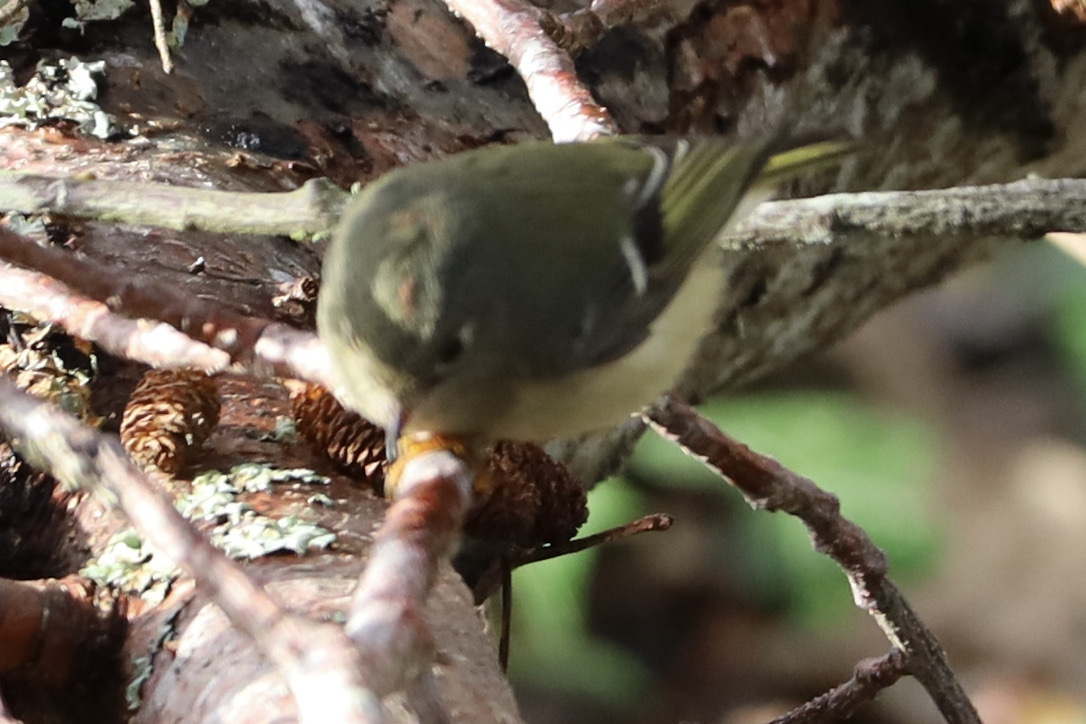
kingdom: Animalia
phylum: Chordata
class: Aves
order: Passeriformes
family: Regulidae
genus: Regulus
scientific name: Regulus calendula
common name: Ruby-crowned kinglet
